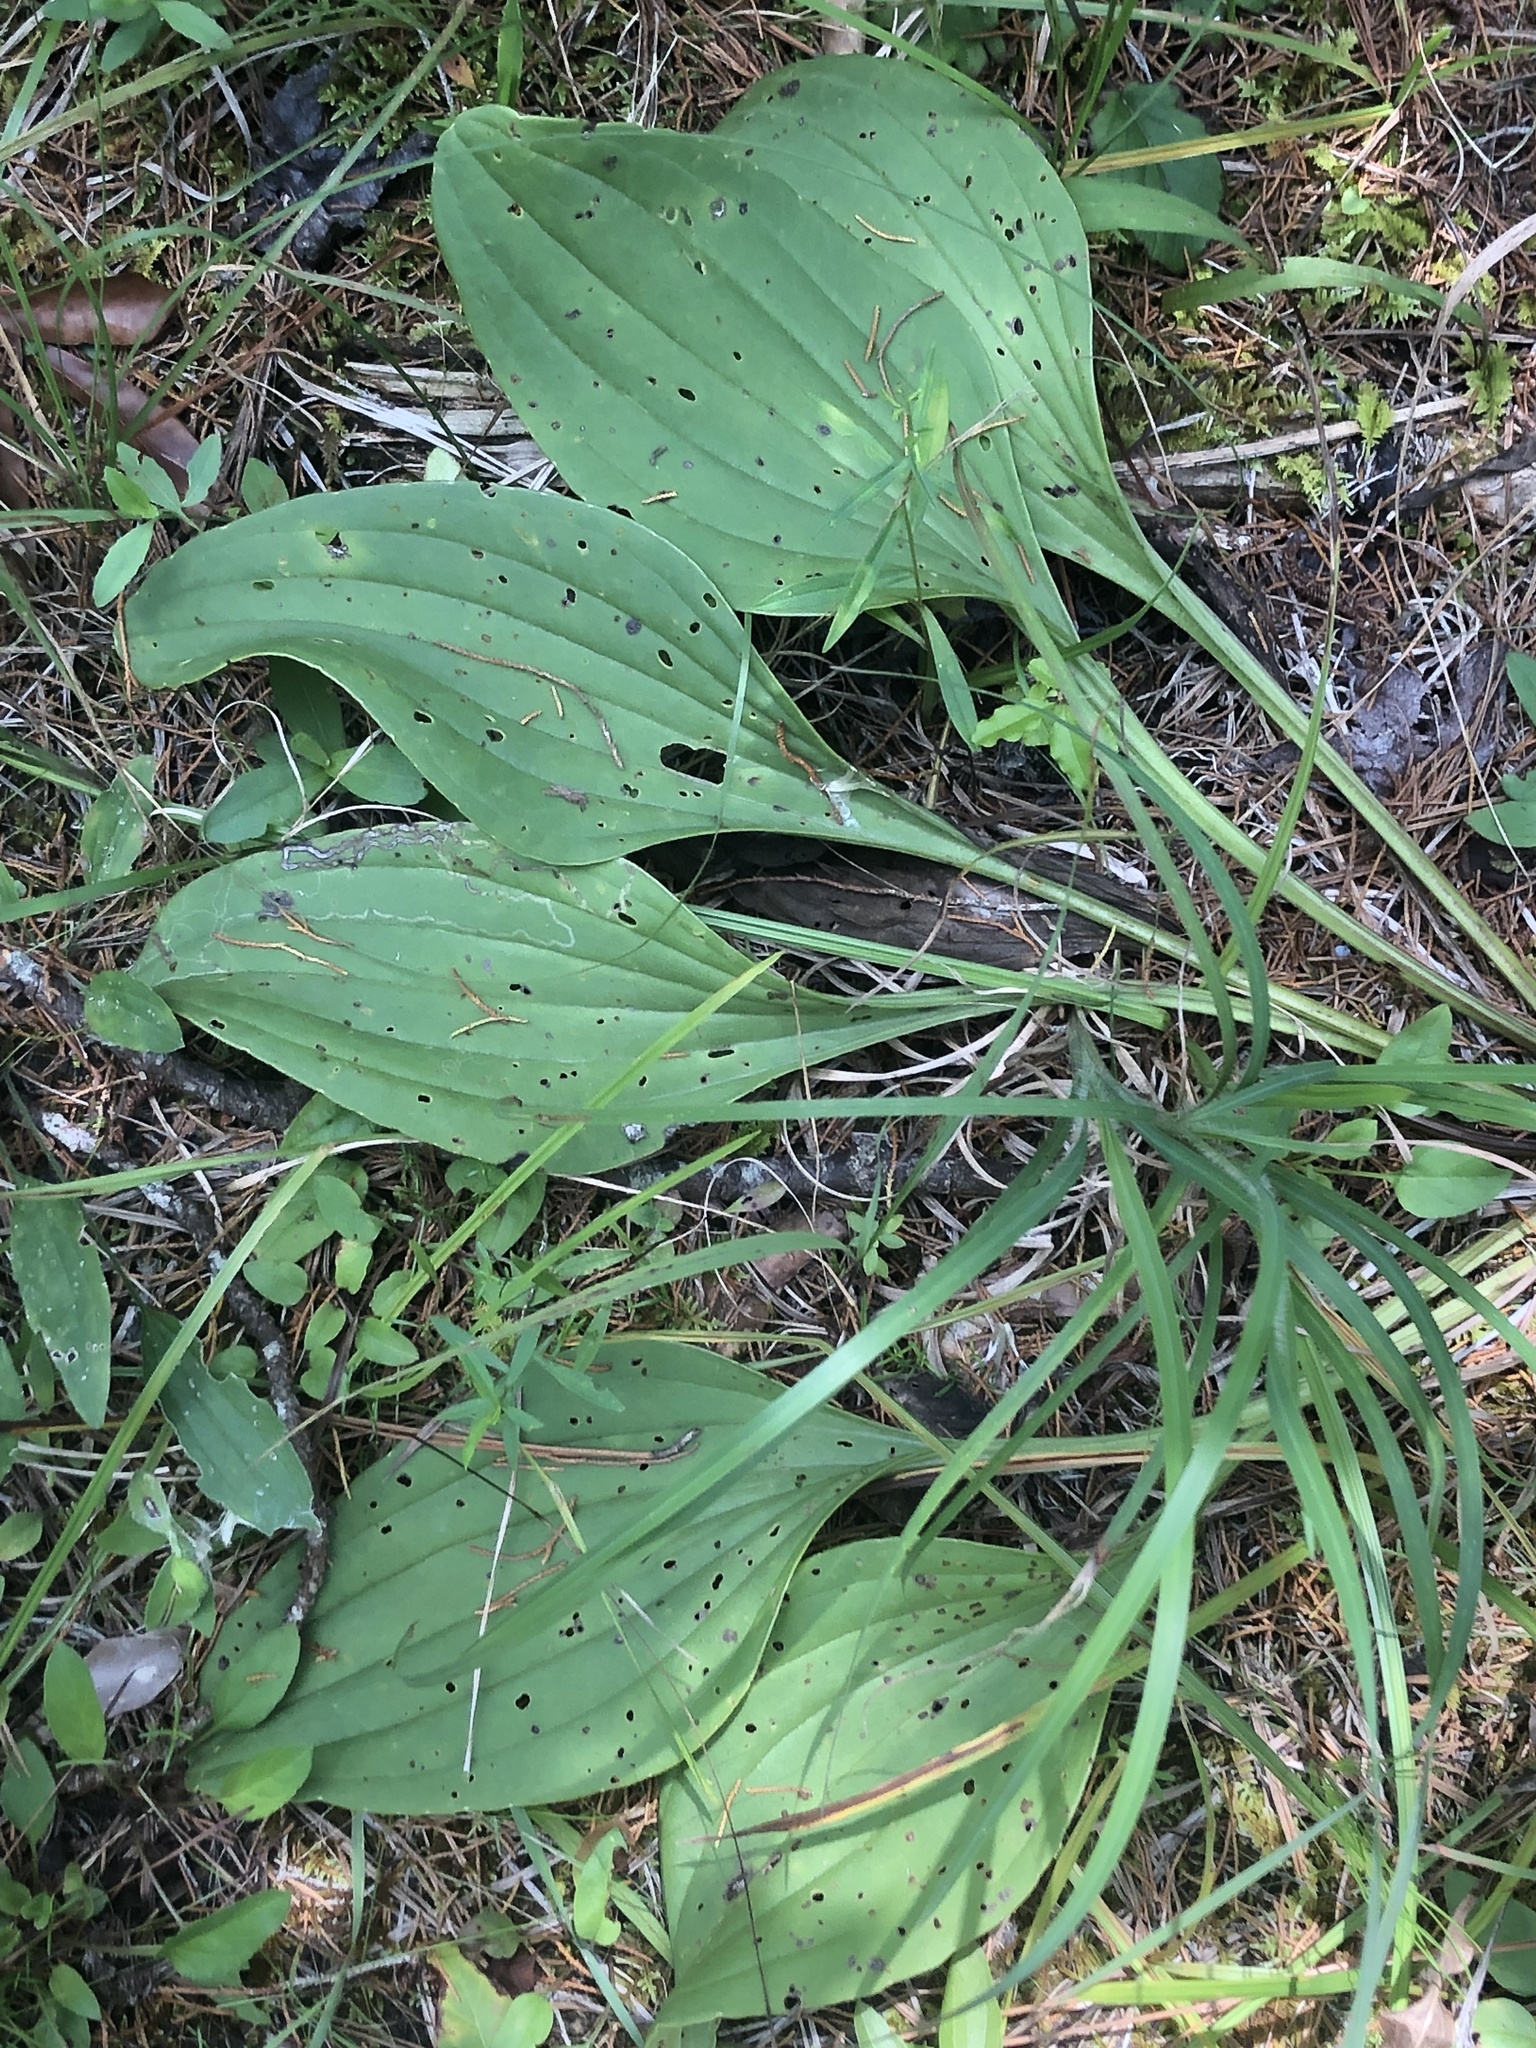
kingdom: Plantae
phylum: Tracheophyta
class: Magnoliopsida
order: Asterales
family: Asteraceae
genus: Arnoglossum
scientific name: Arnoglossum plantagineum
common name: Groove-stemmed indian-plantain
